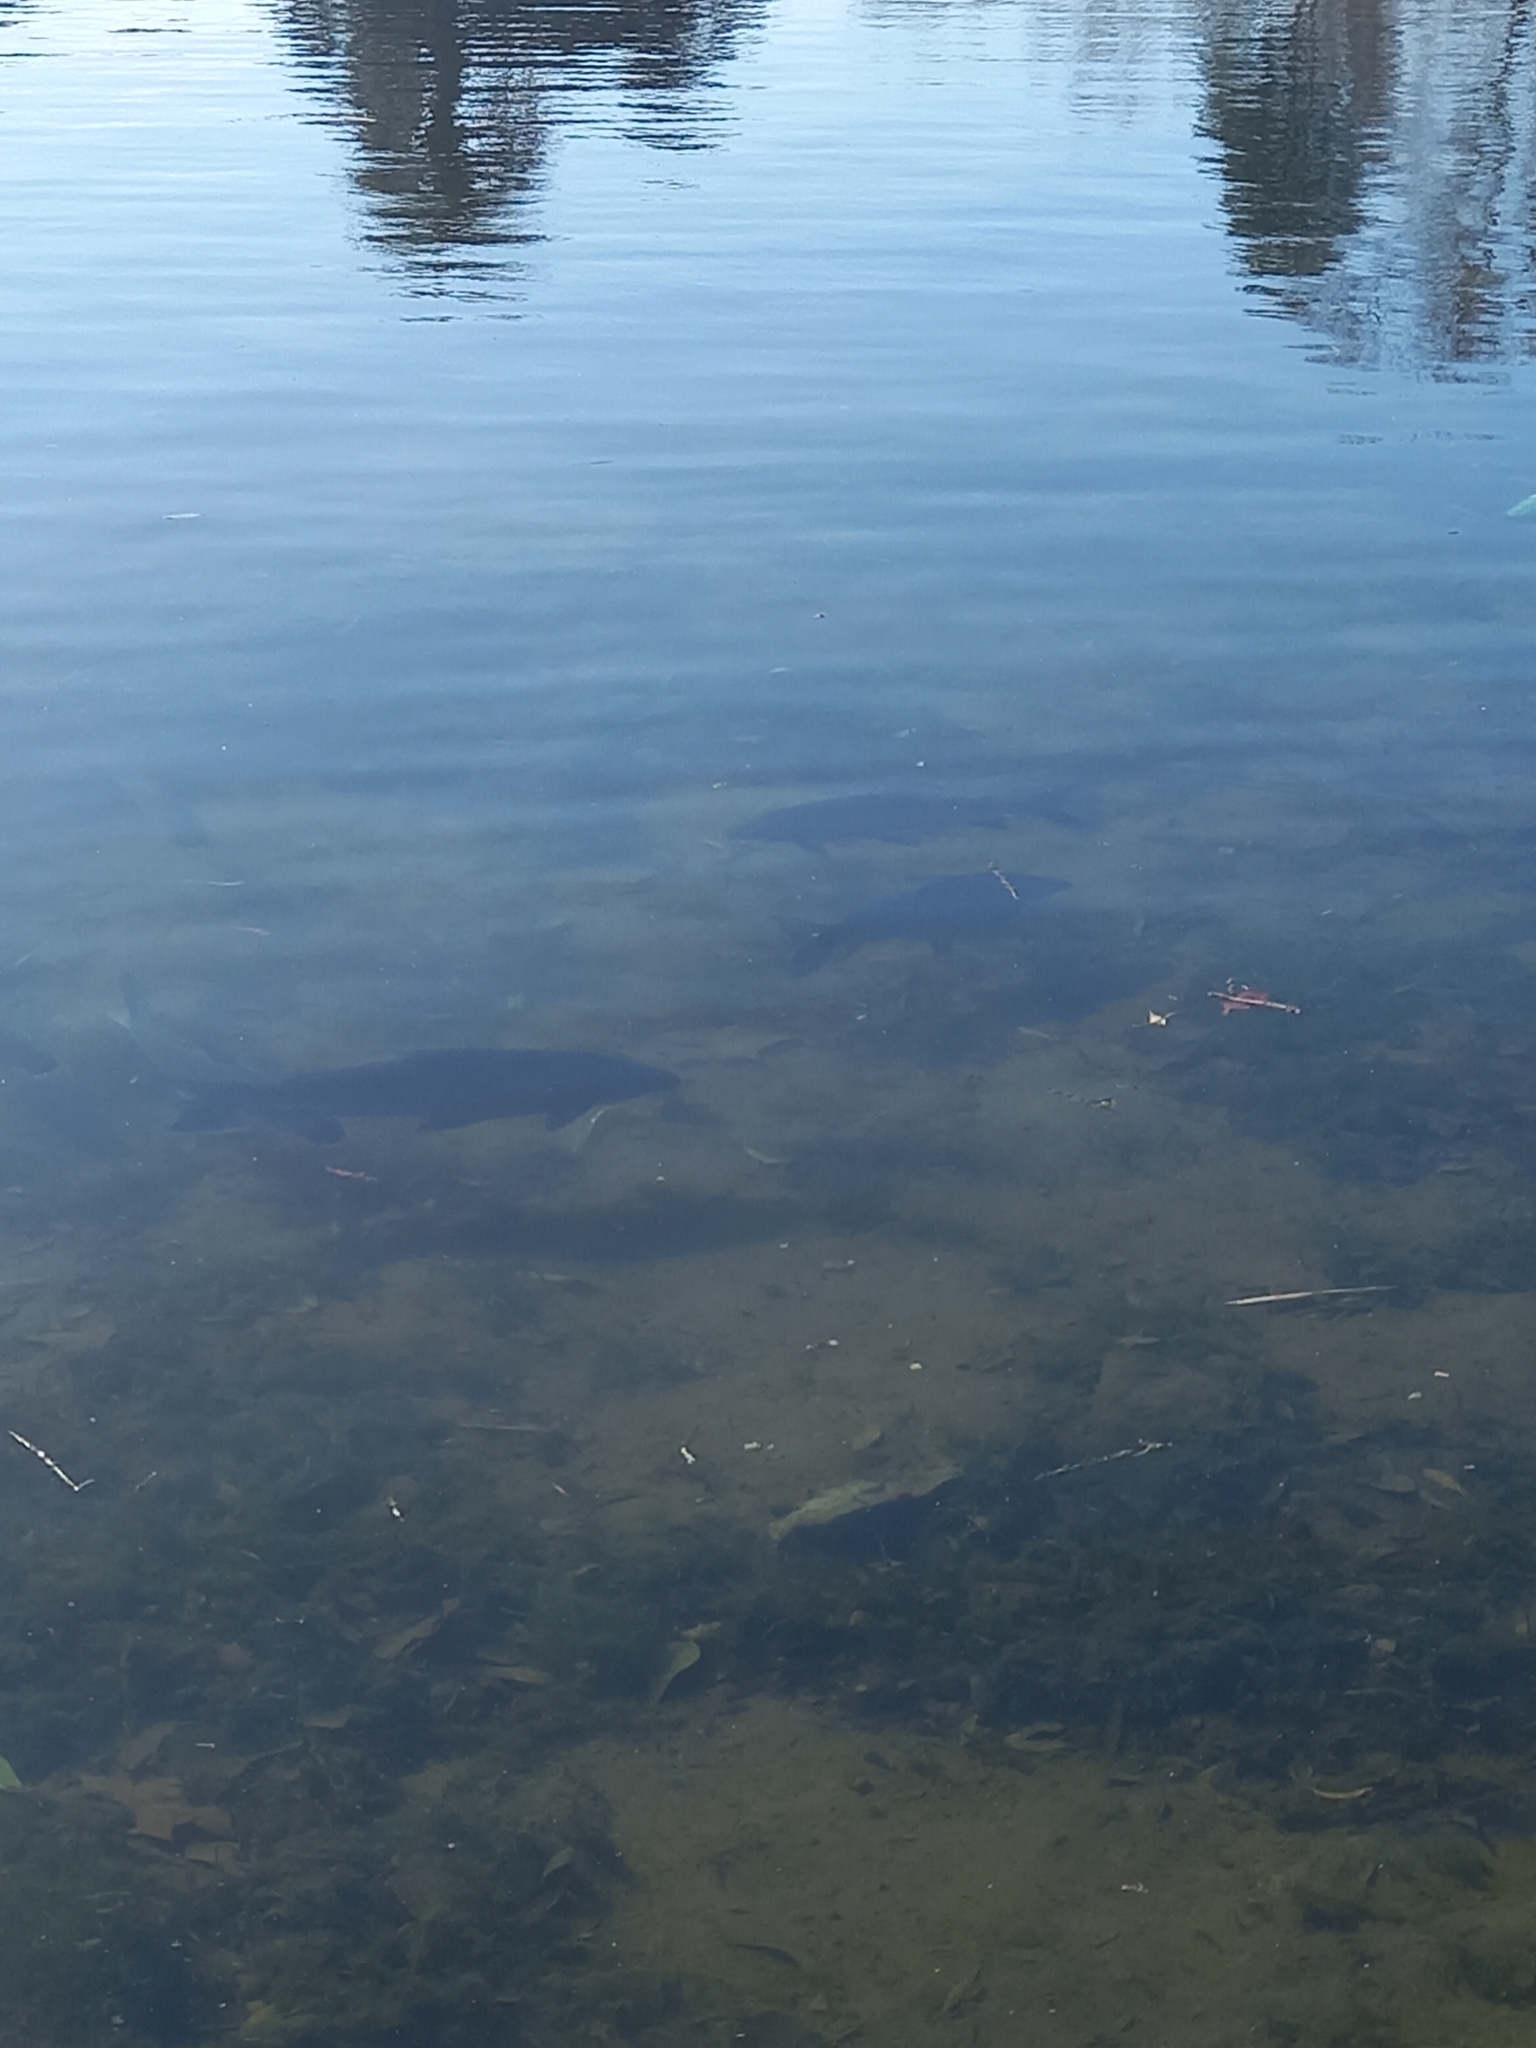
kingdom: Animalia
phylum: Chordata
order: Characiformes
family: Prochilodontidae
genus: Prochilodus
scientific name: Prochilodus lineatus
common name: Curimbata
